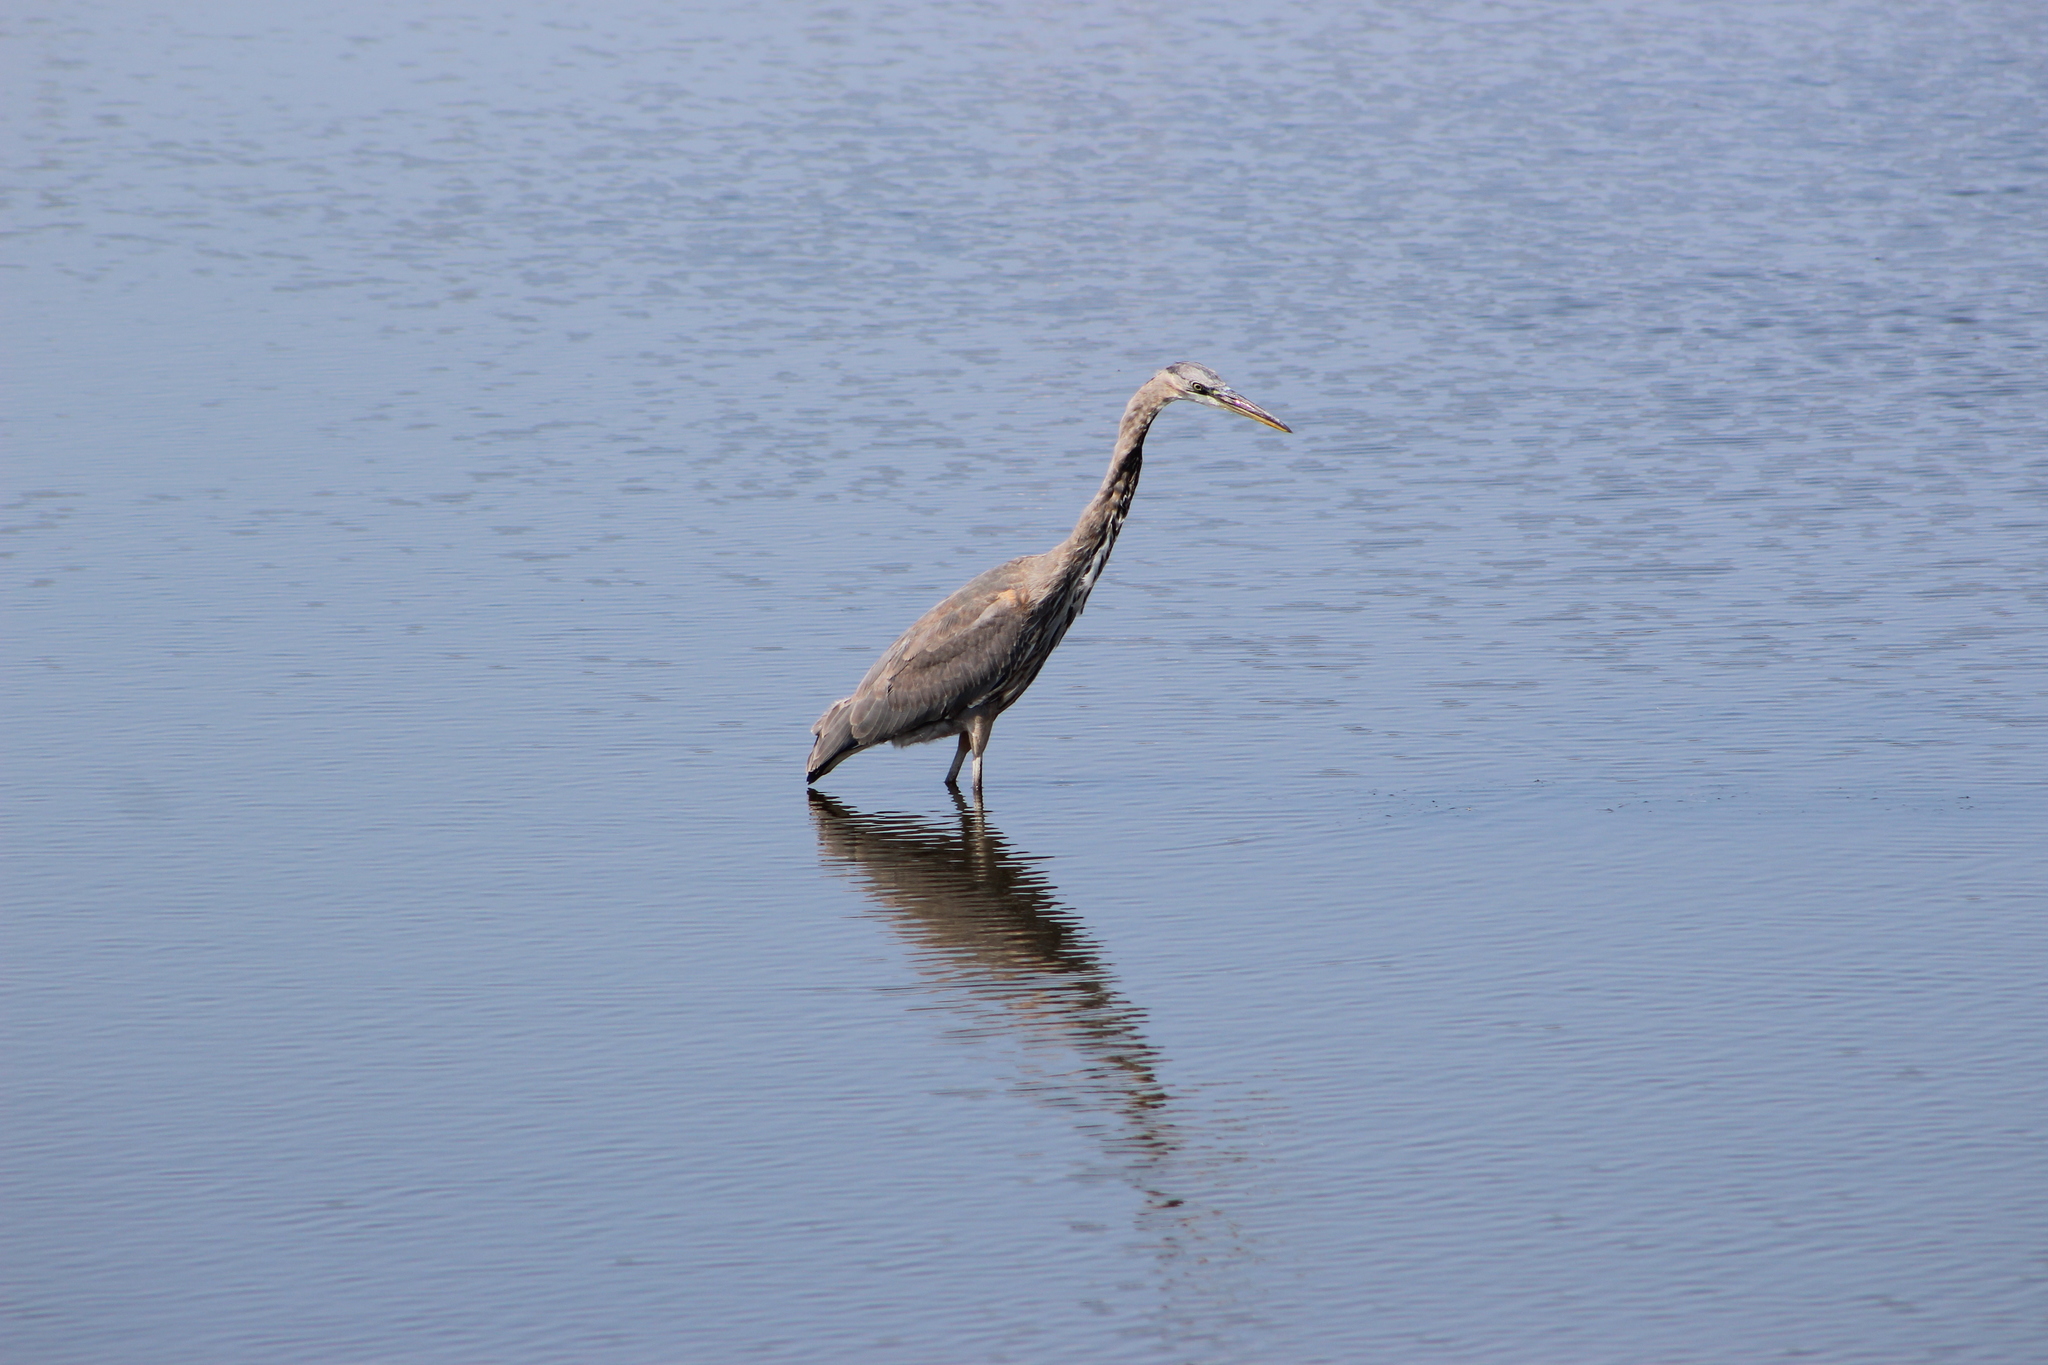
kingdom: Animalia
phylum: Chordata
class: Aves
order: Pelecaniformes
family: Ardeidae
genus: Ardea
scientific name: Ardea herodias
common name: Great blue heron
